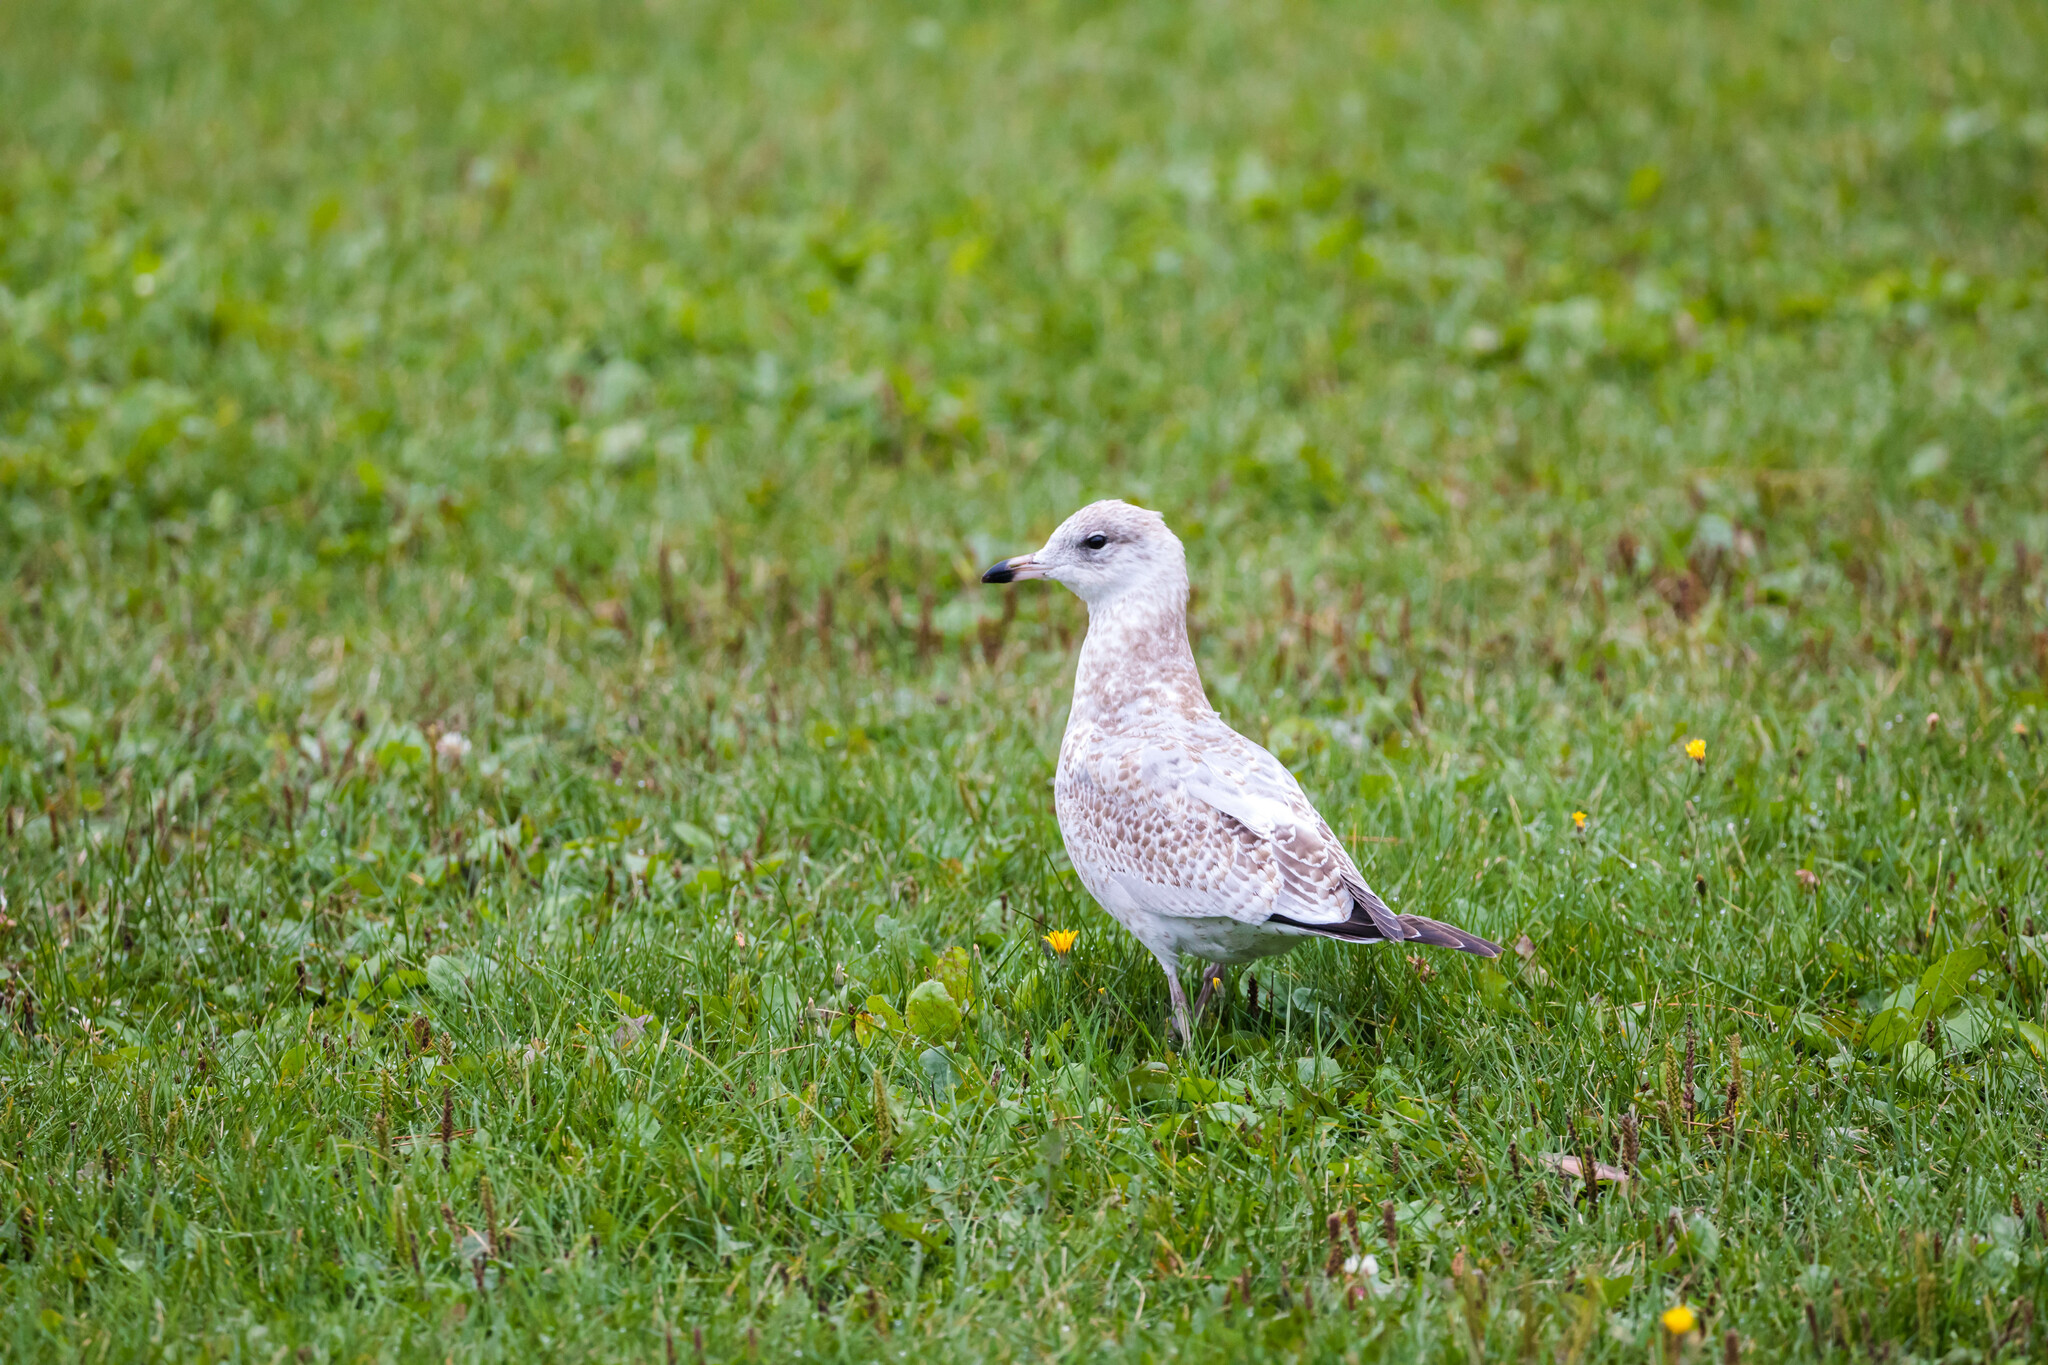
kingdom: Animalia
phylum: Chordata
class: Aves
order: Charadriiformes
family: Laridae
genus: Larus
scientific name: Larus delawarensis
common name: Ring-billed gull
